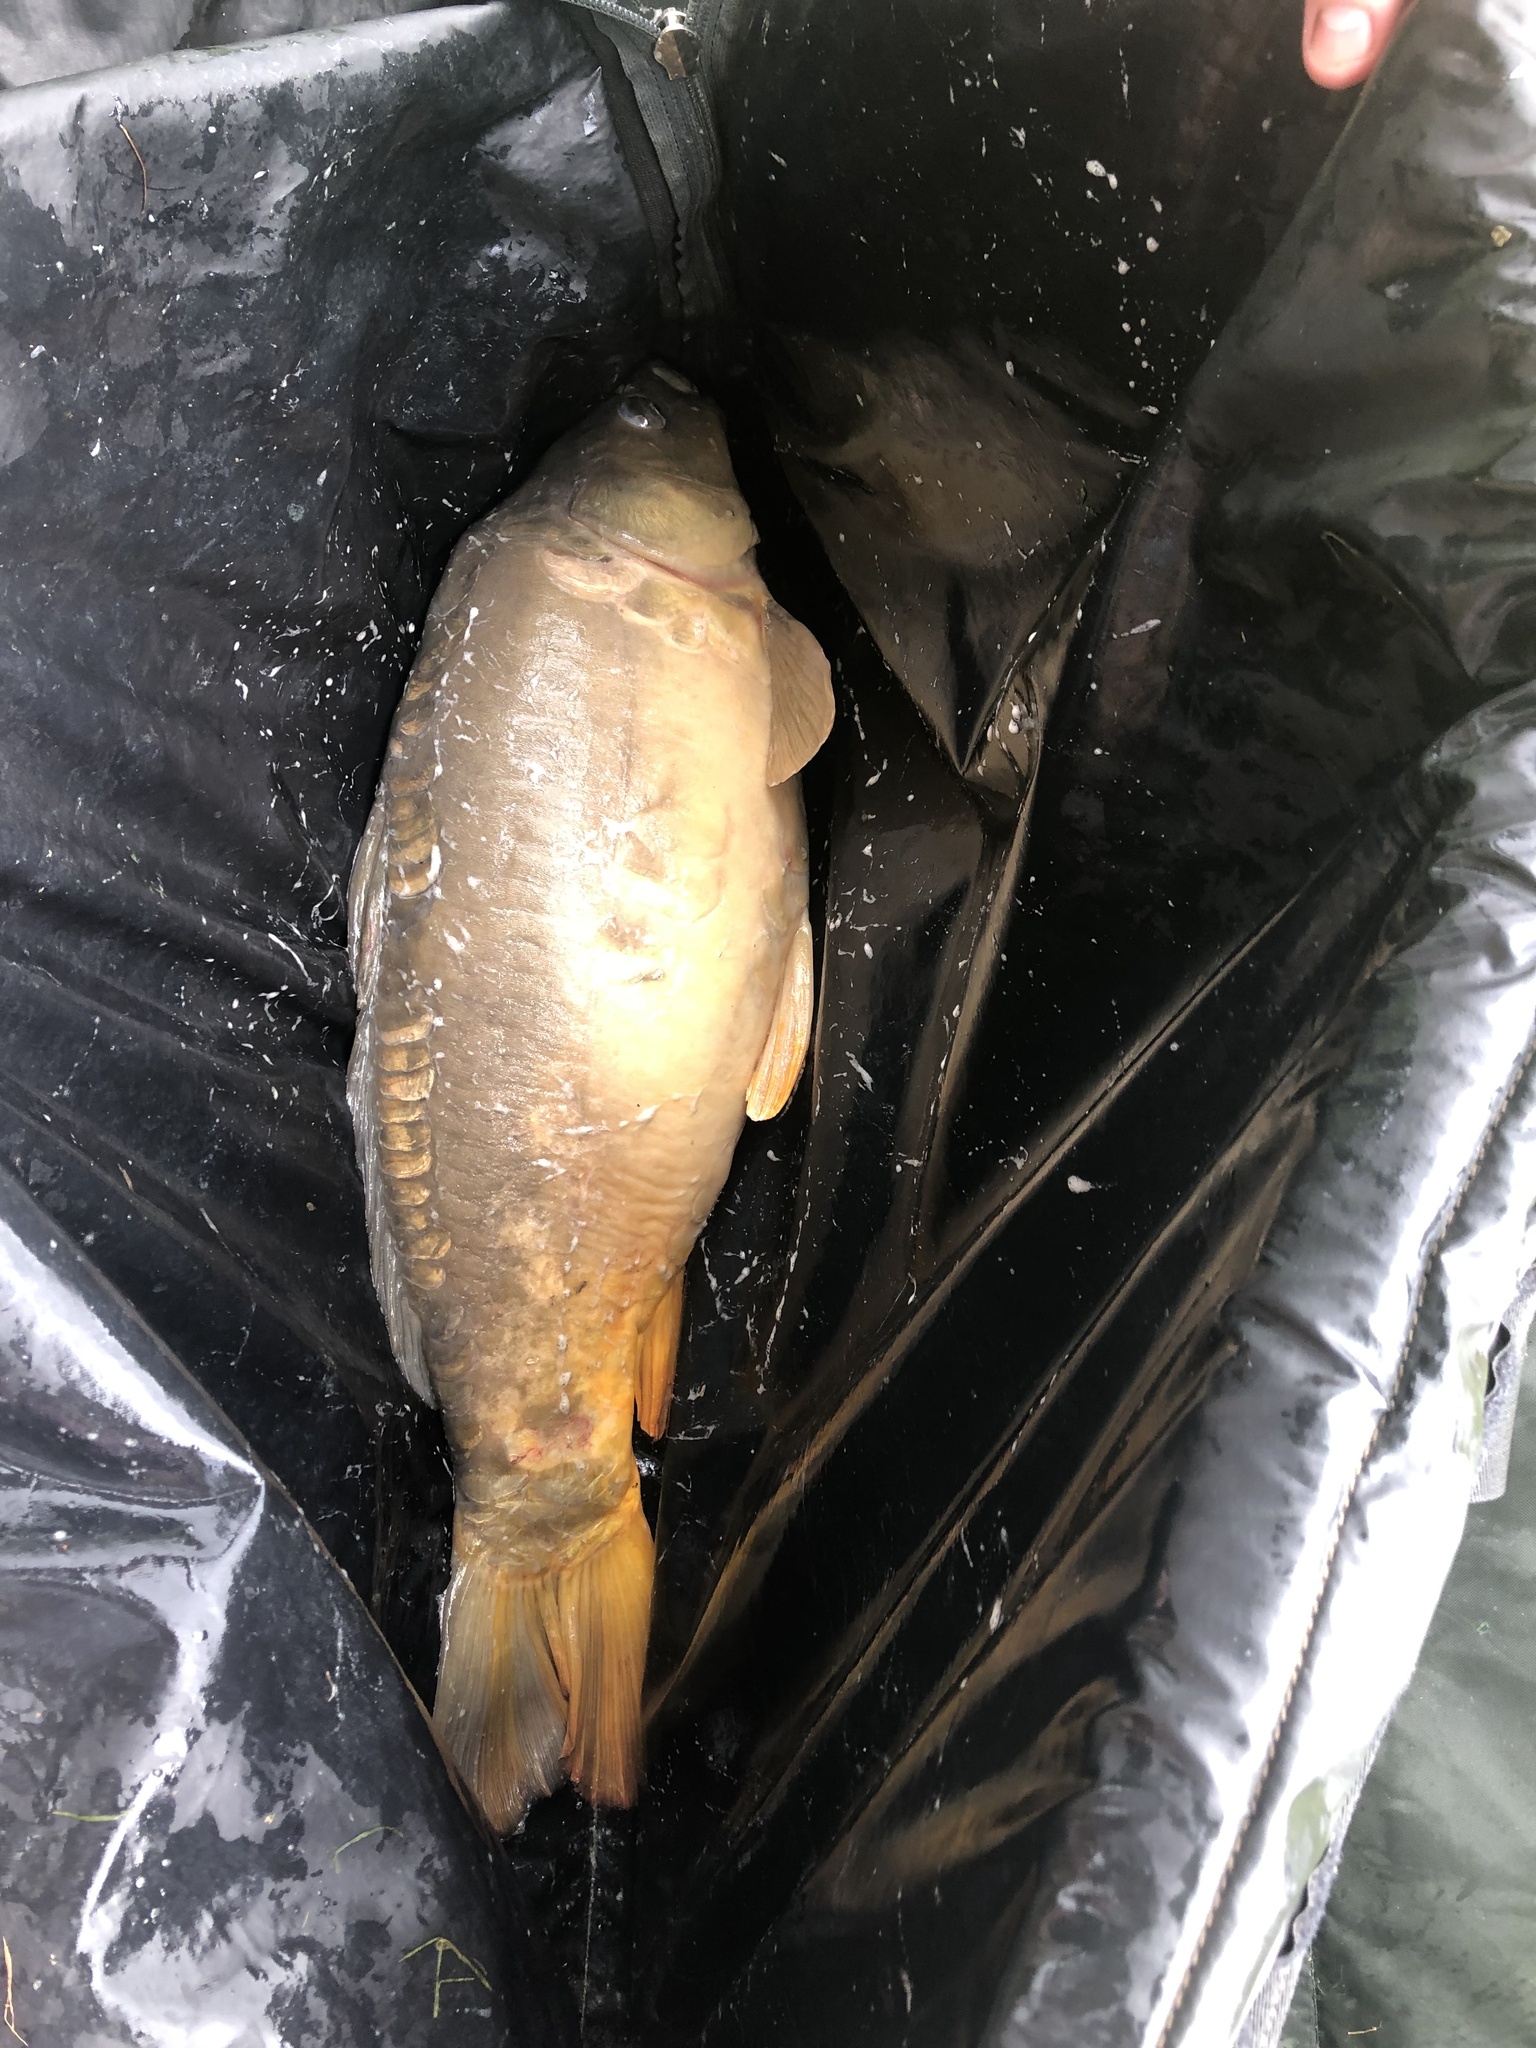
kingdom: Animalia
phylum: Chordata
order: Cypriniformes
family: Cyprinidae
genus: Cyprinus
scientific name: Cyprinus carpio
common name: Common carp
